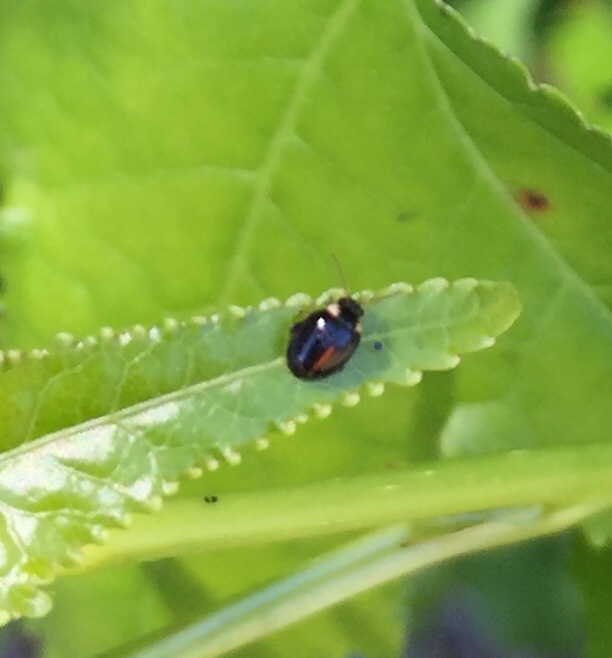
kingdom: Animalia
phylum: Arthropoda
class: Insecta
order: Coleoptera
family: Scirtidae
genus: Scirtes
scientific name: Scirtes orbiculatus
